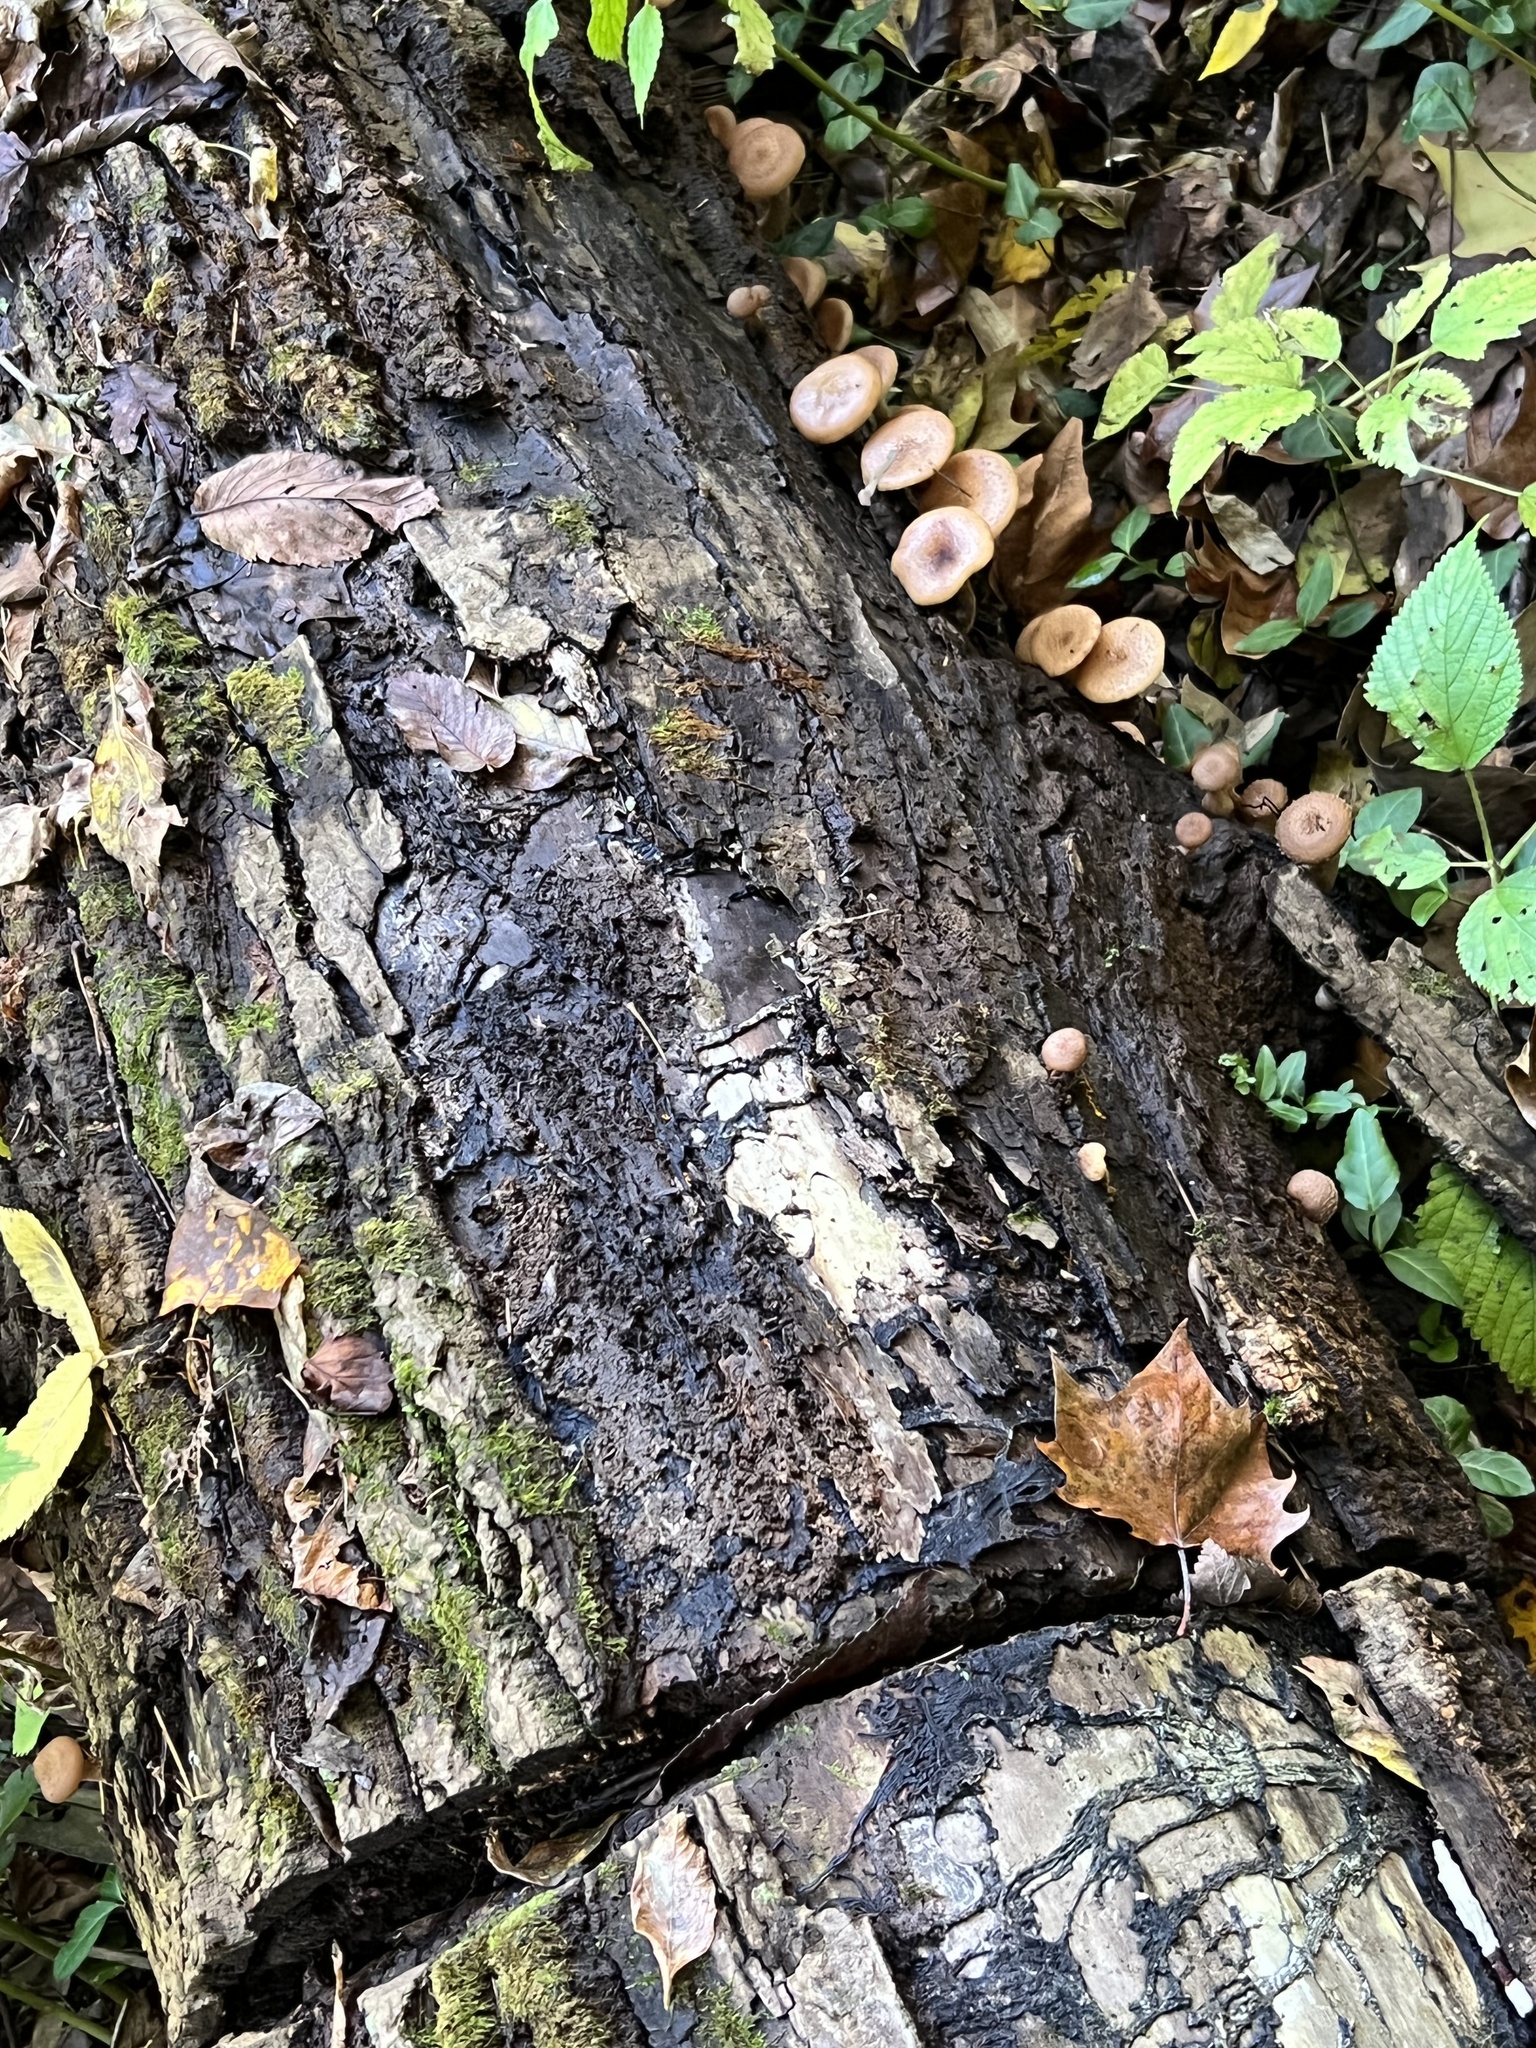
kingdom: Fungi
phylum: Basidiomycota
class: Agaricomycetes
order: Agaricales
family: Physalacriaceae
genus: Armillaria
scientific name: Armillaria gallica
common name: Bulbous honey fungus
